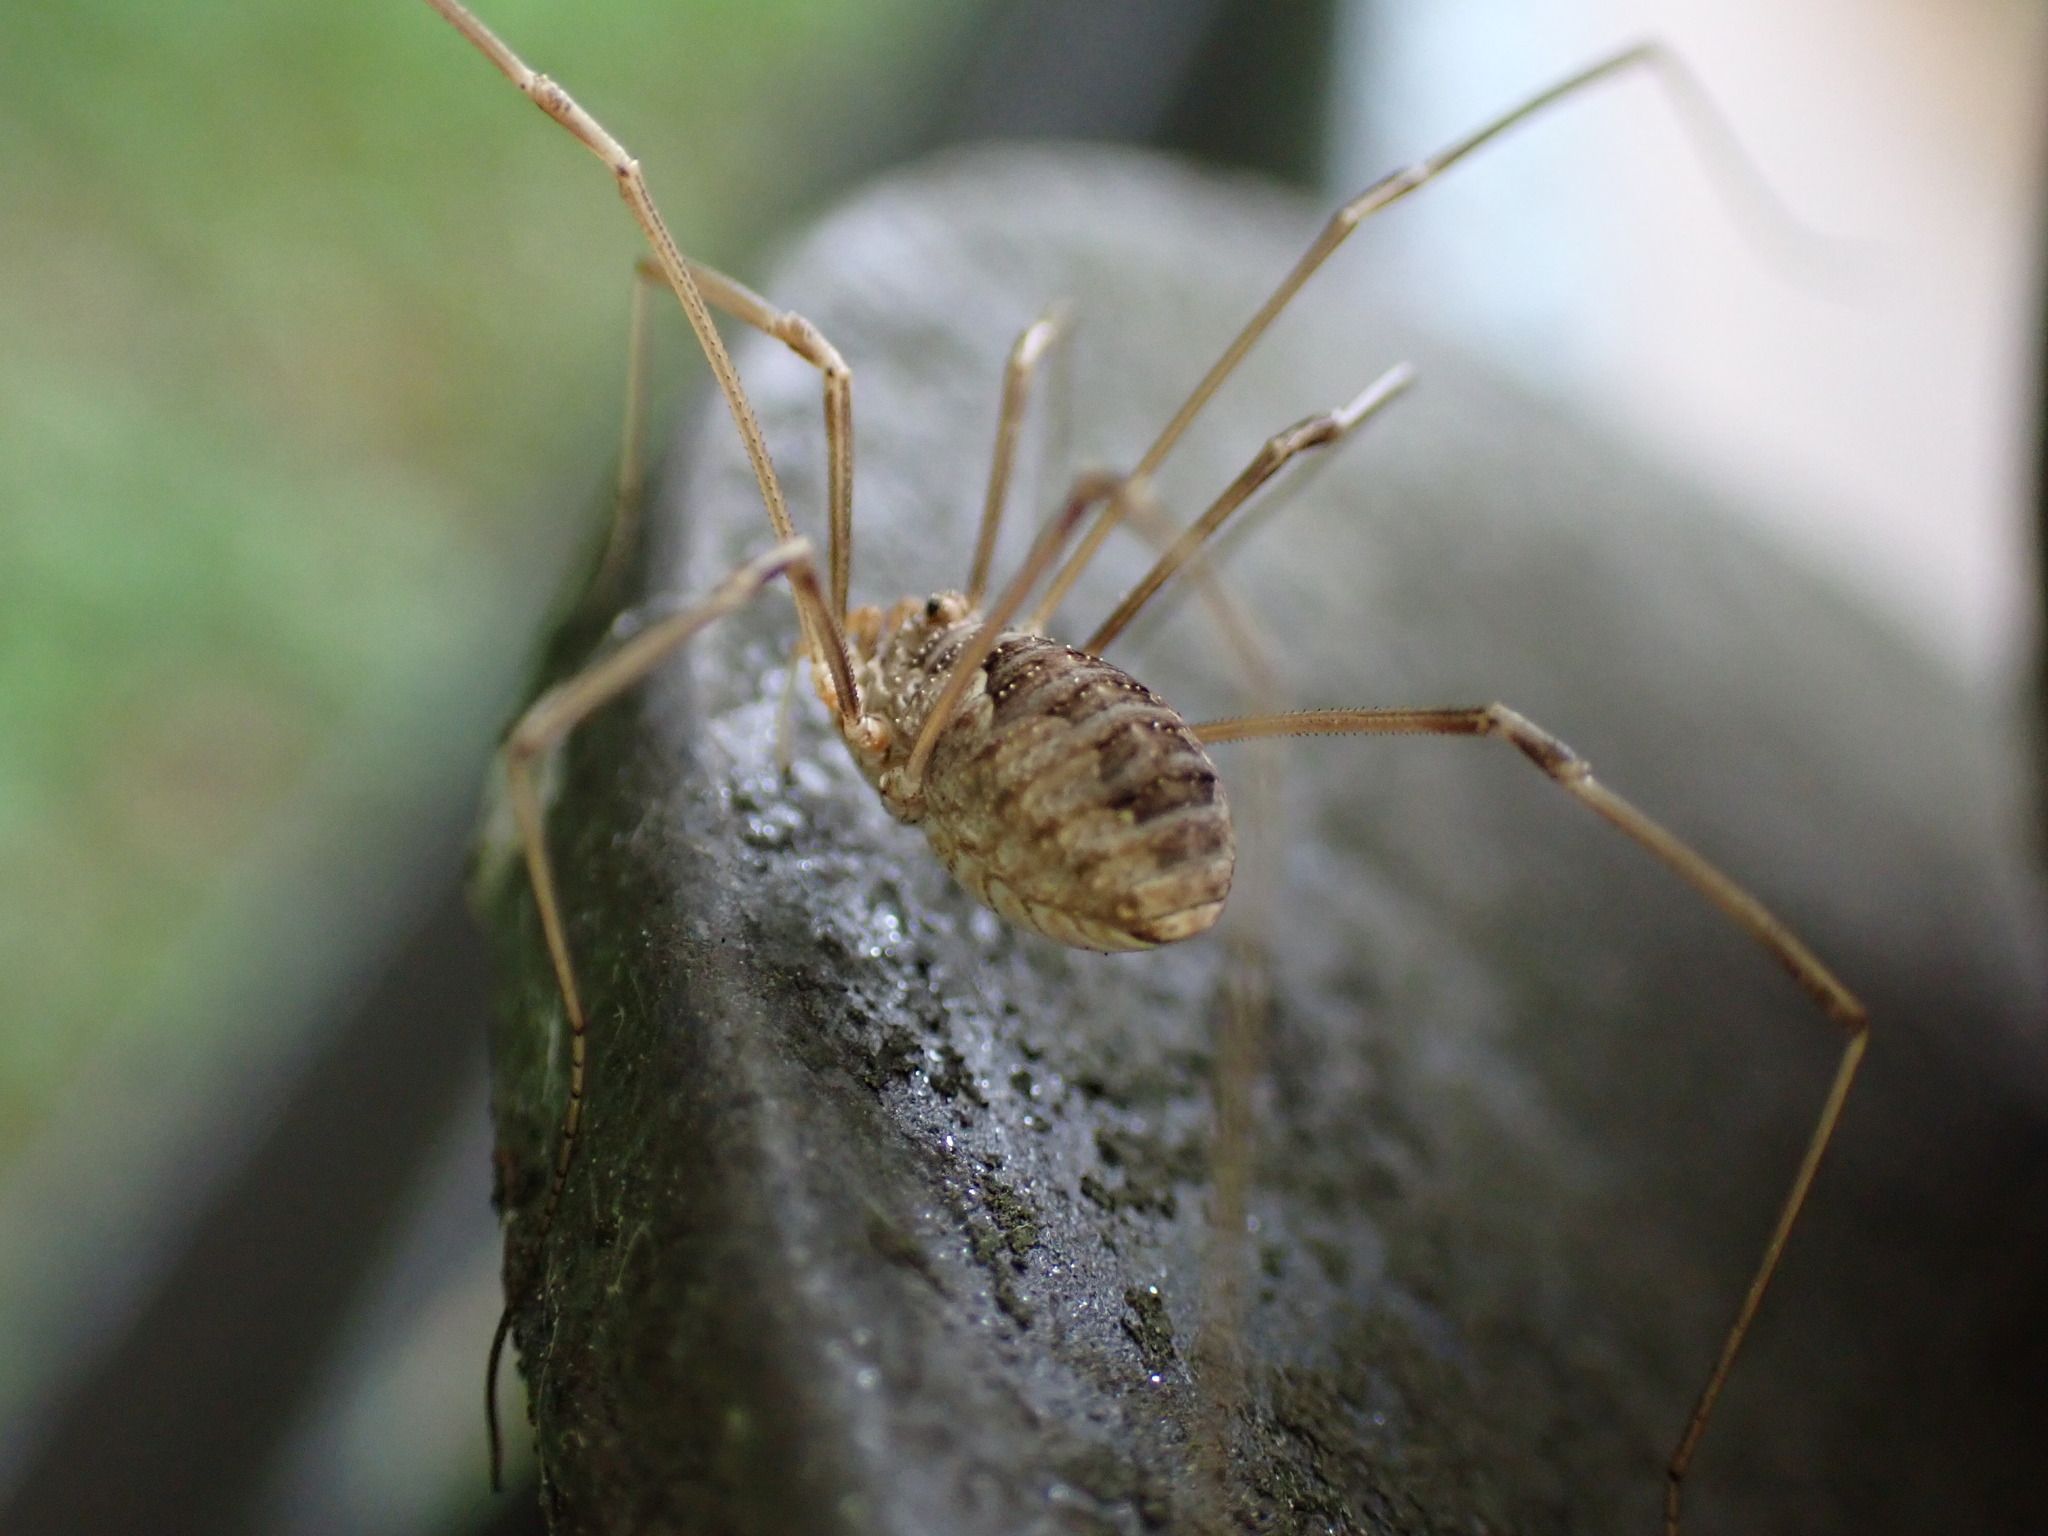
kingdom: Animalia
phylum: Arthropoda
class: Arachnida
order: Opiliones
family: Phalangiidae
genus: Phalangium
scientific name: Phalangium opilio
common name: Daddy longleg
